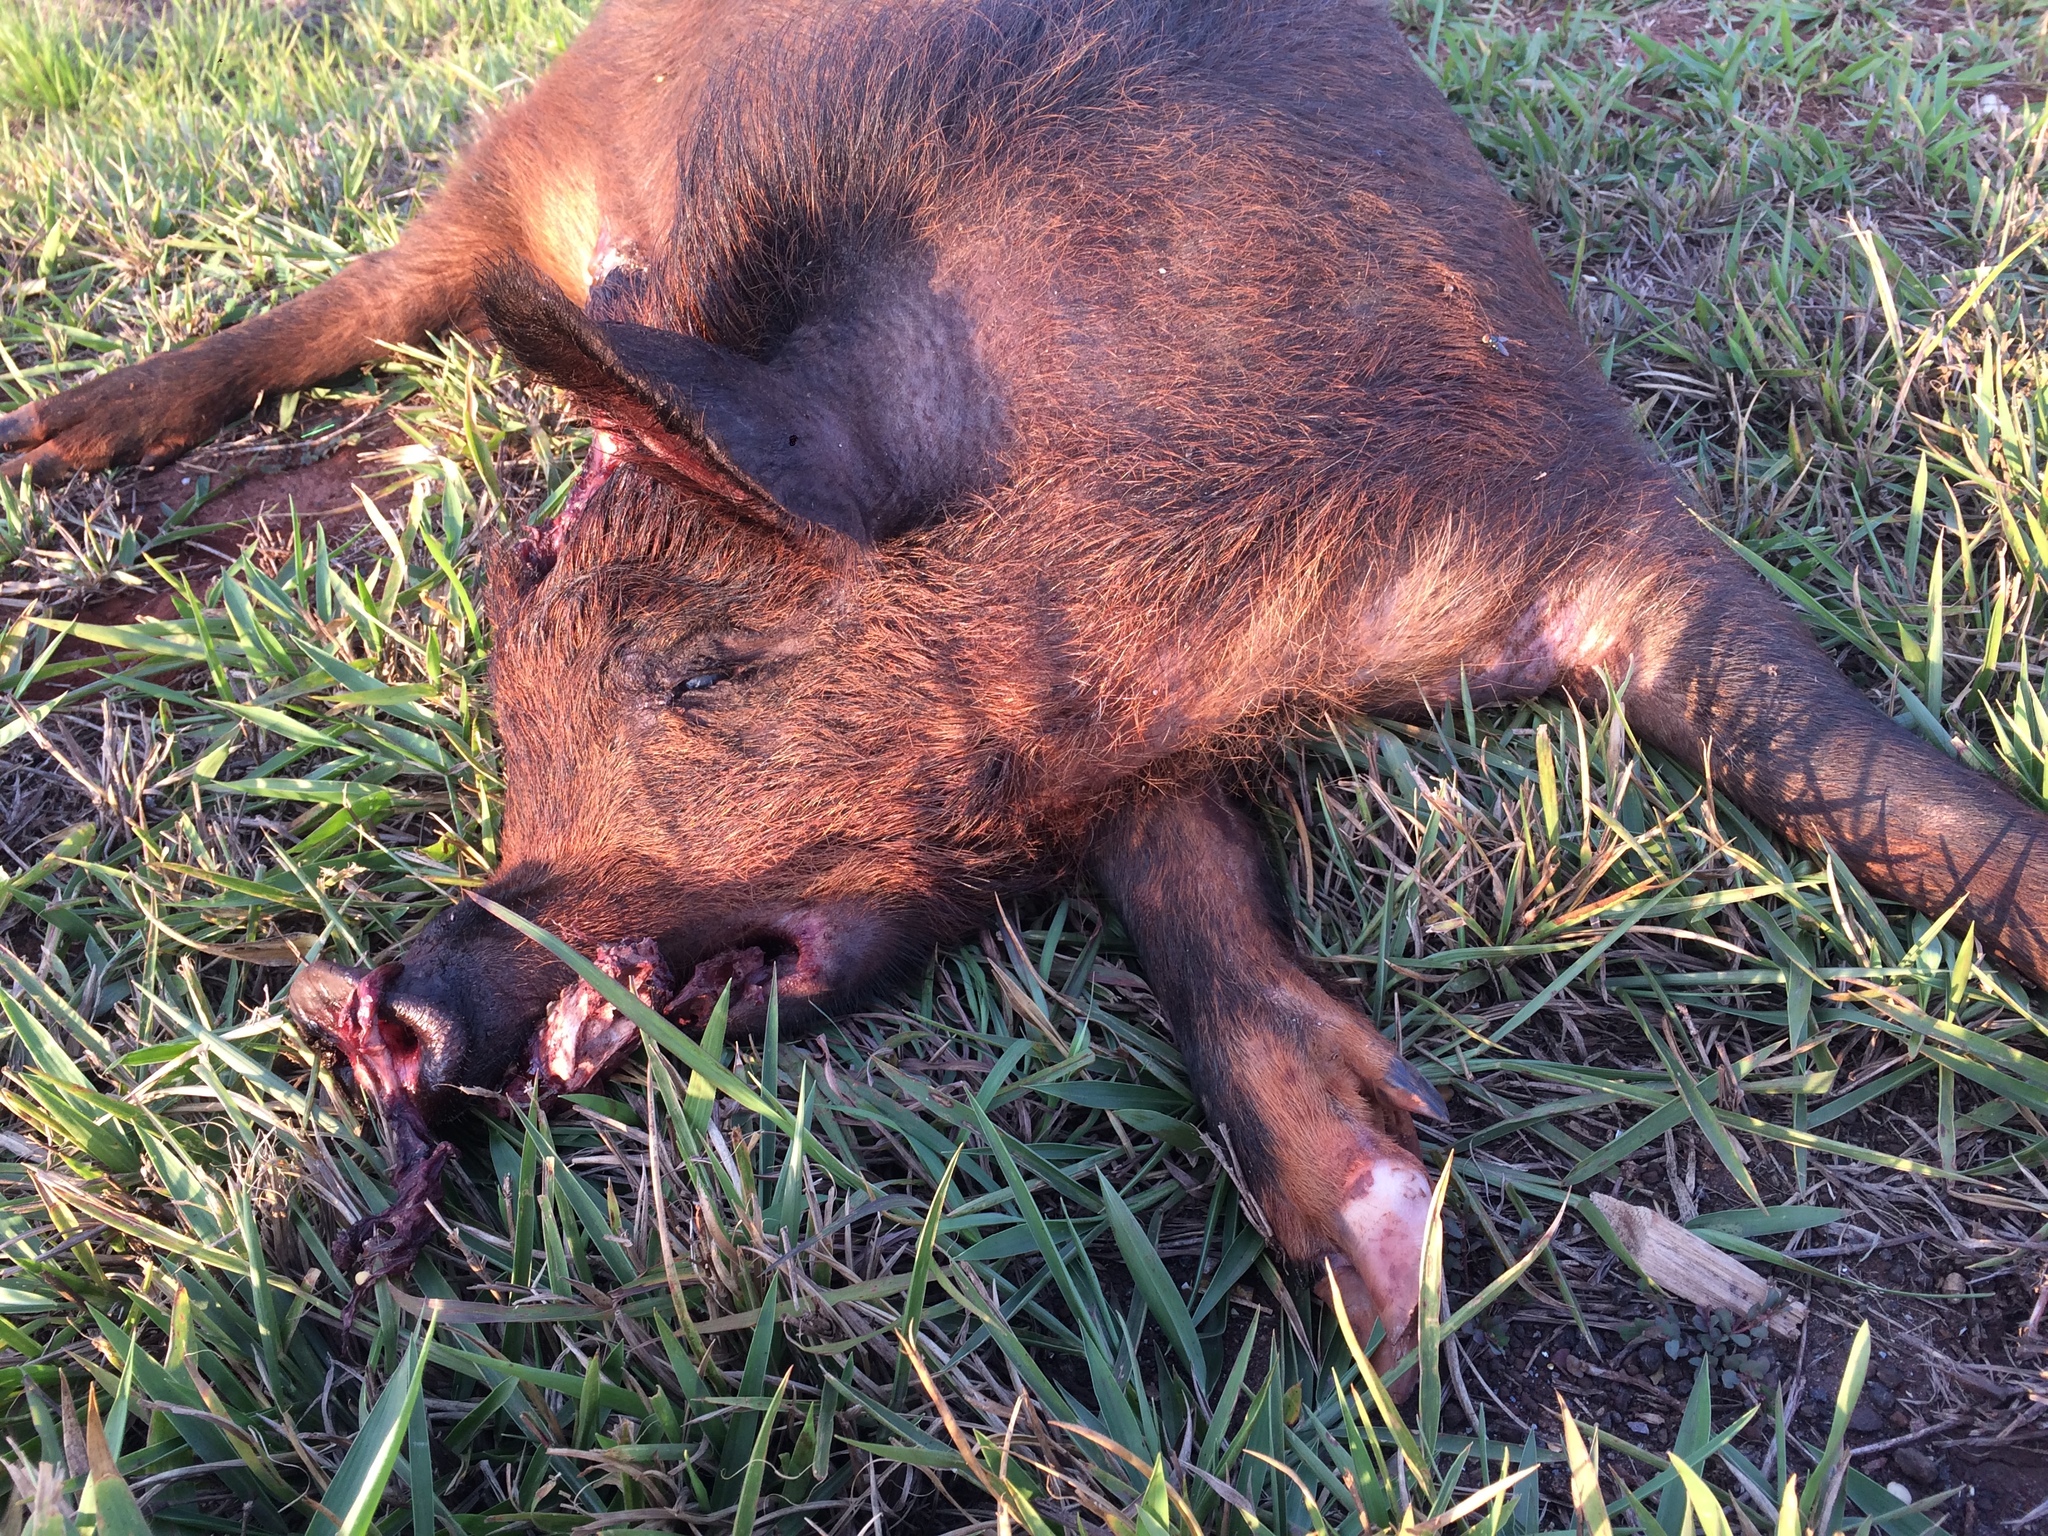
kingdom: Animalia
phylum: Chordata
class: Mammalia
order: Artiodactyla
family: Suidae
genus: Sus
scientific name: Sus scrofa
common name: Wild boar
